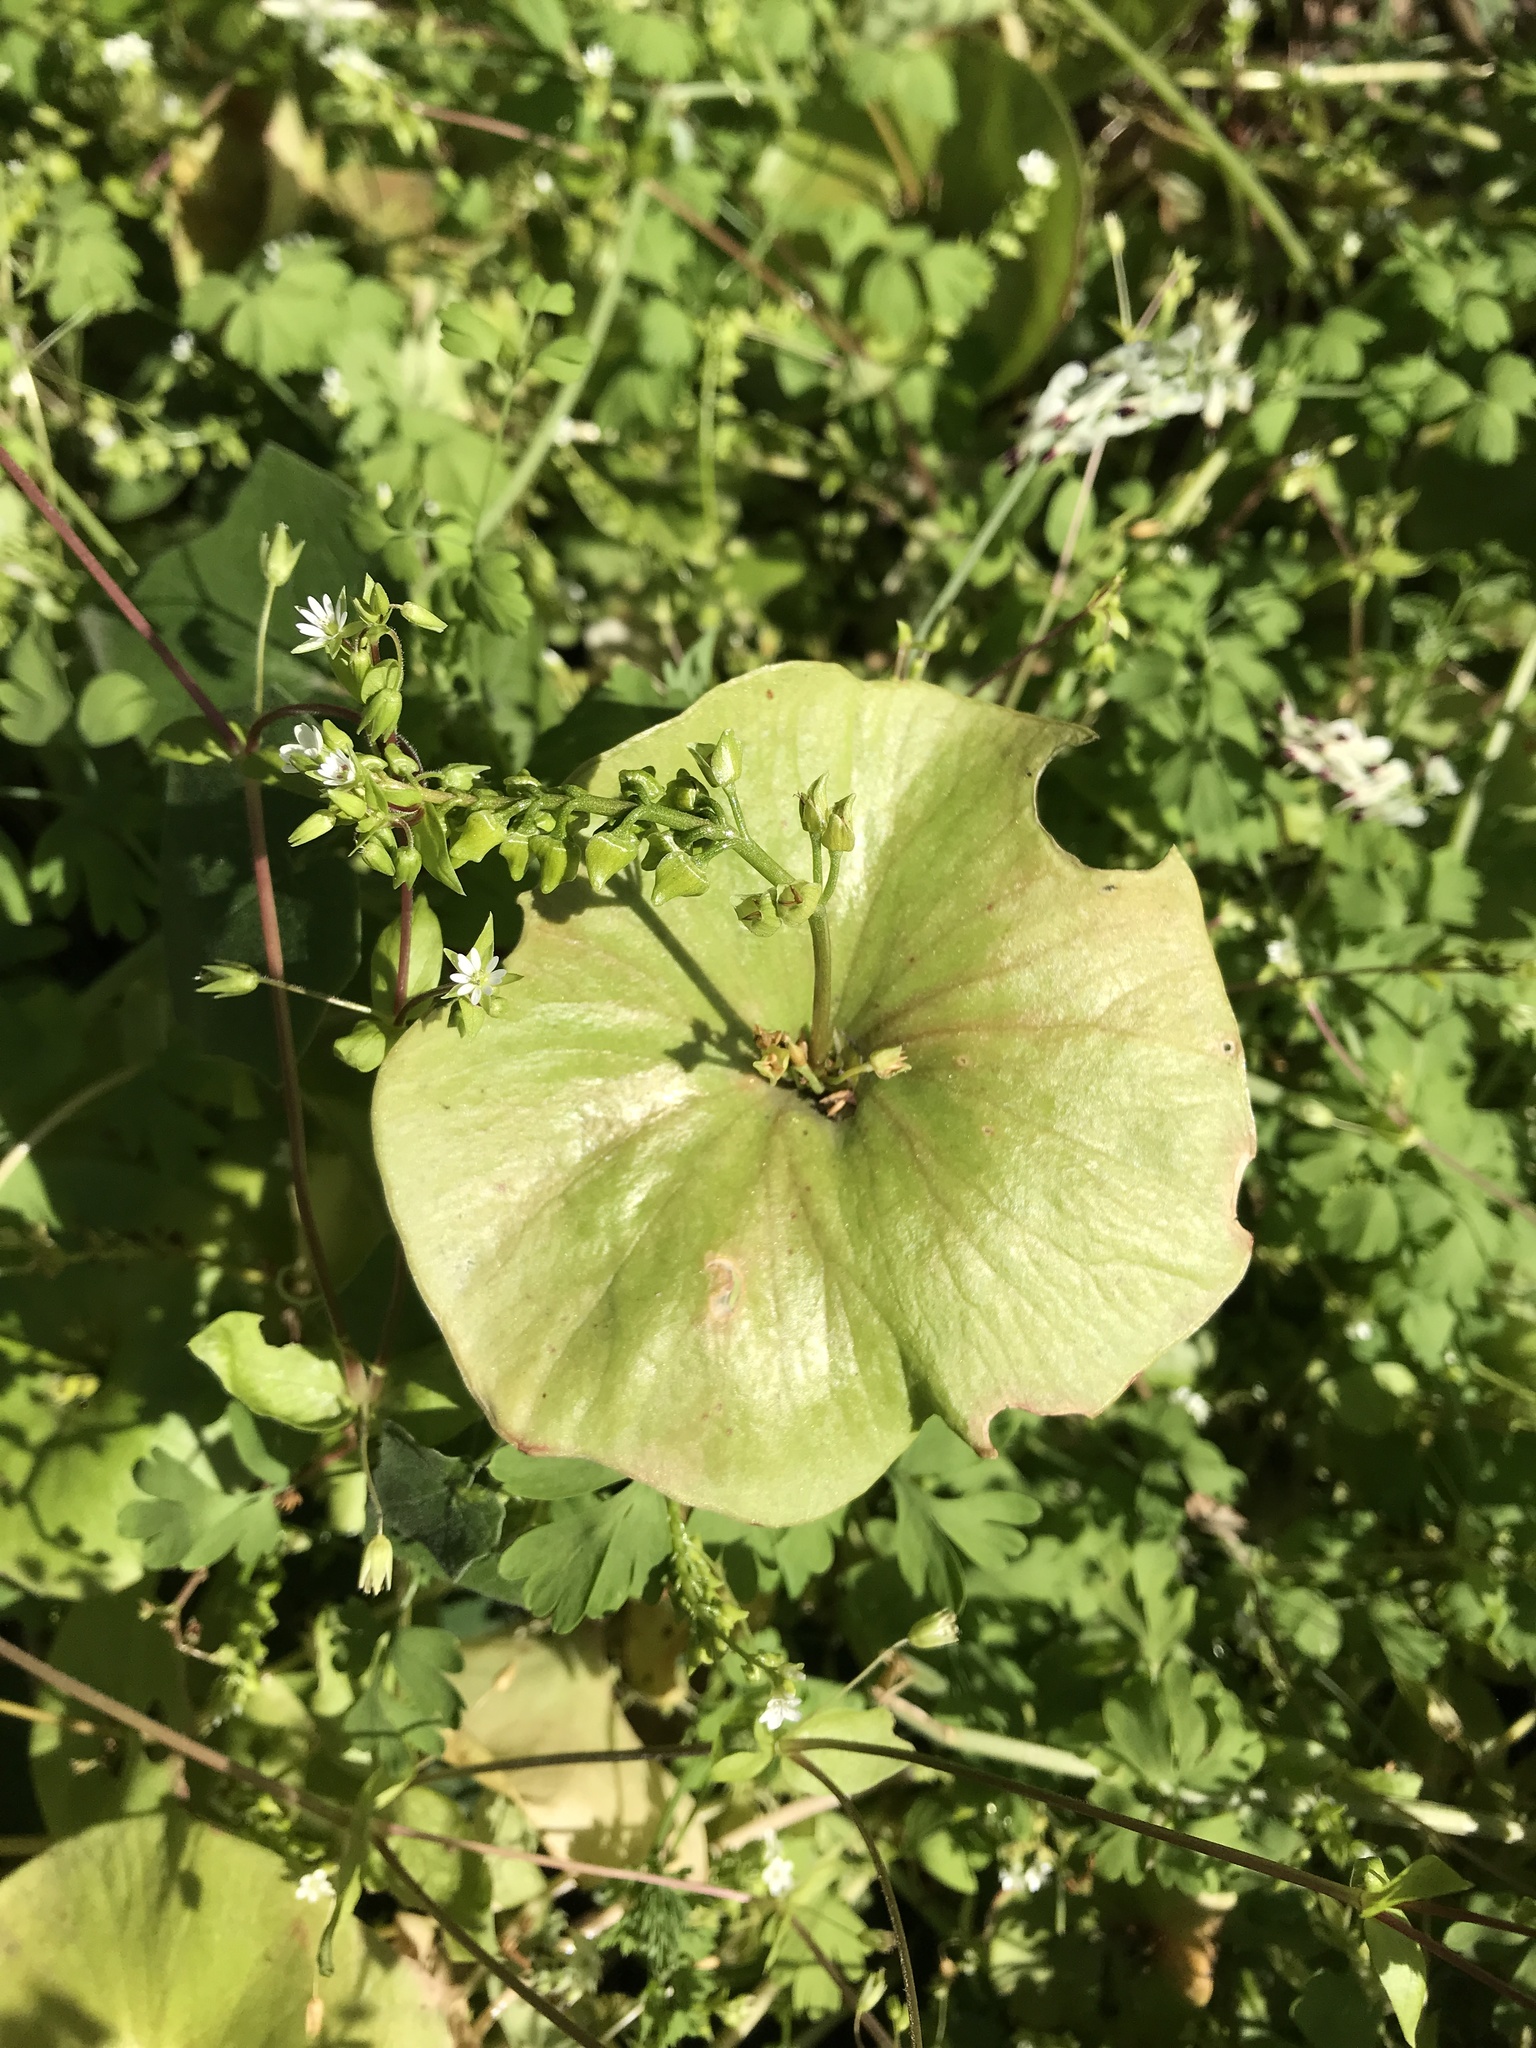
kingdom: Plantae
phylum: Tracheophyta
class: Magnoliopsida
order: Caryophyllales
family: Montiaceae
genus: Claytonia
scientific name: Claytonia perfoliata
